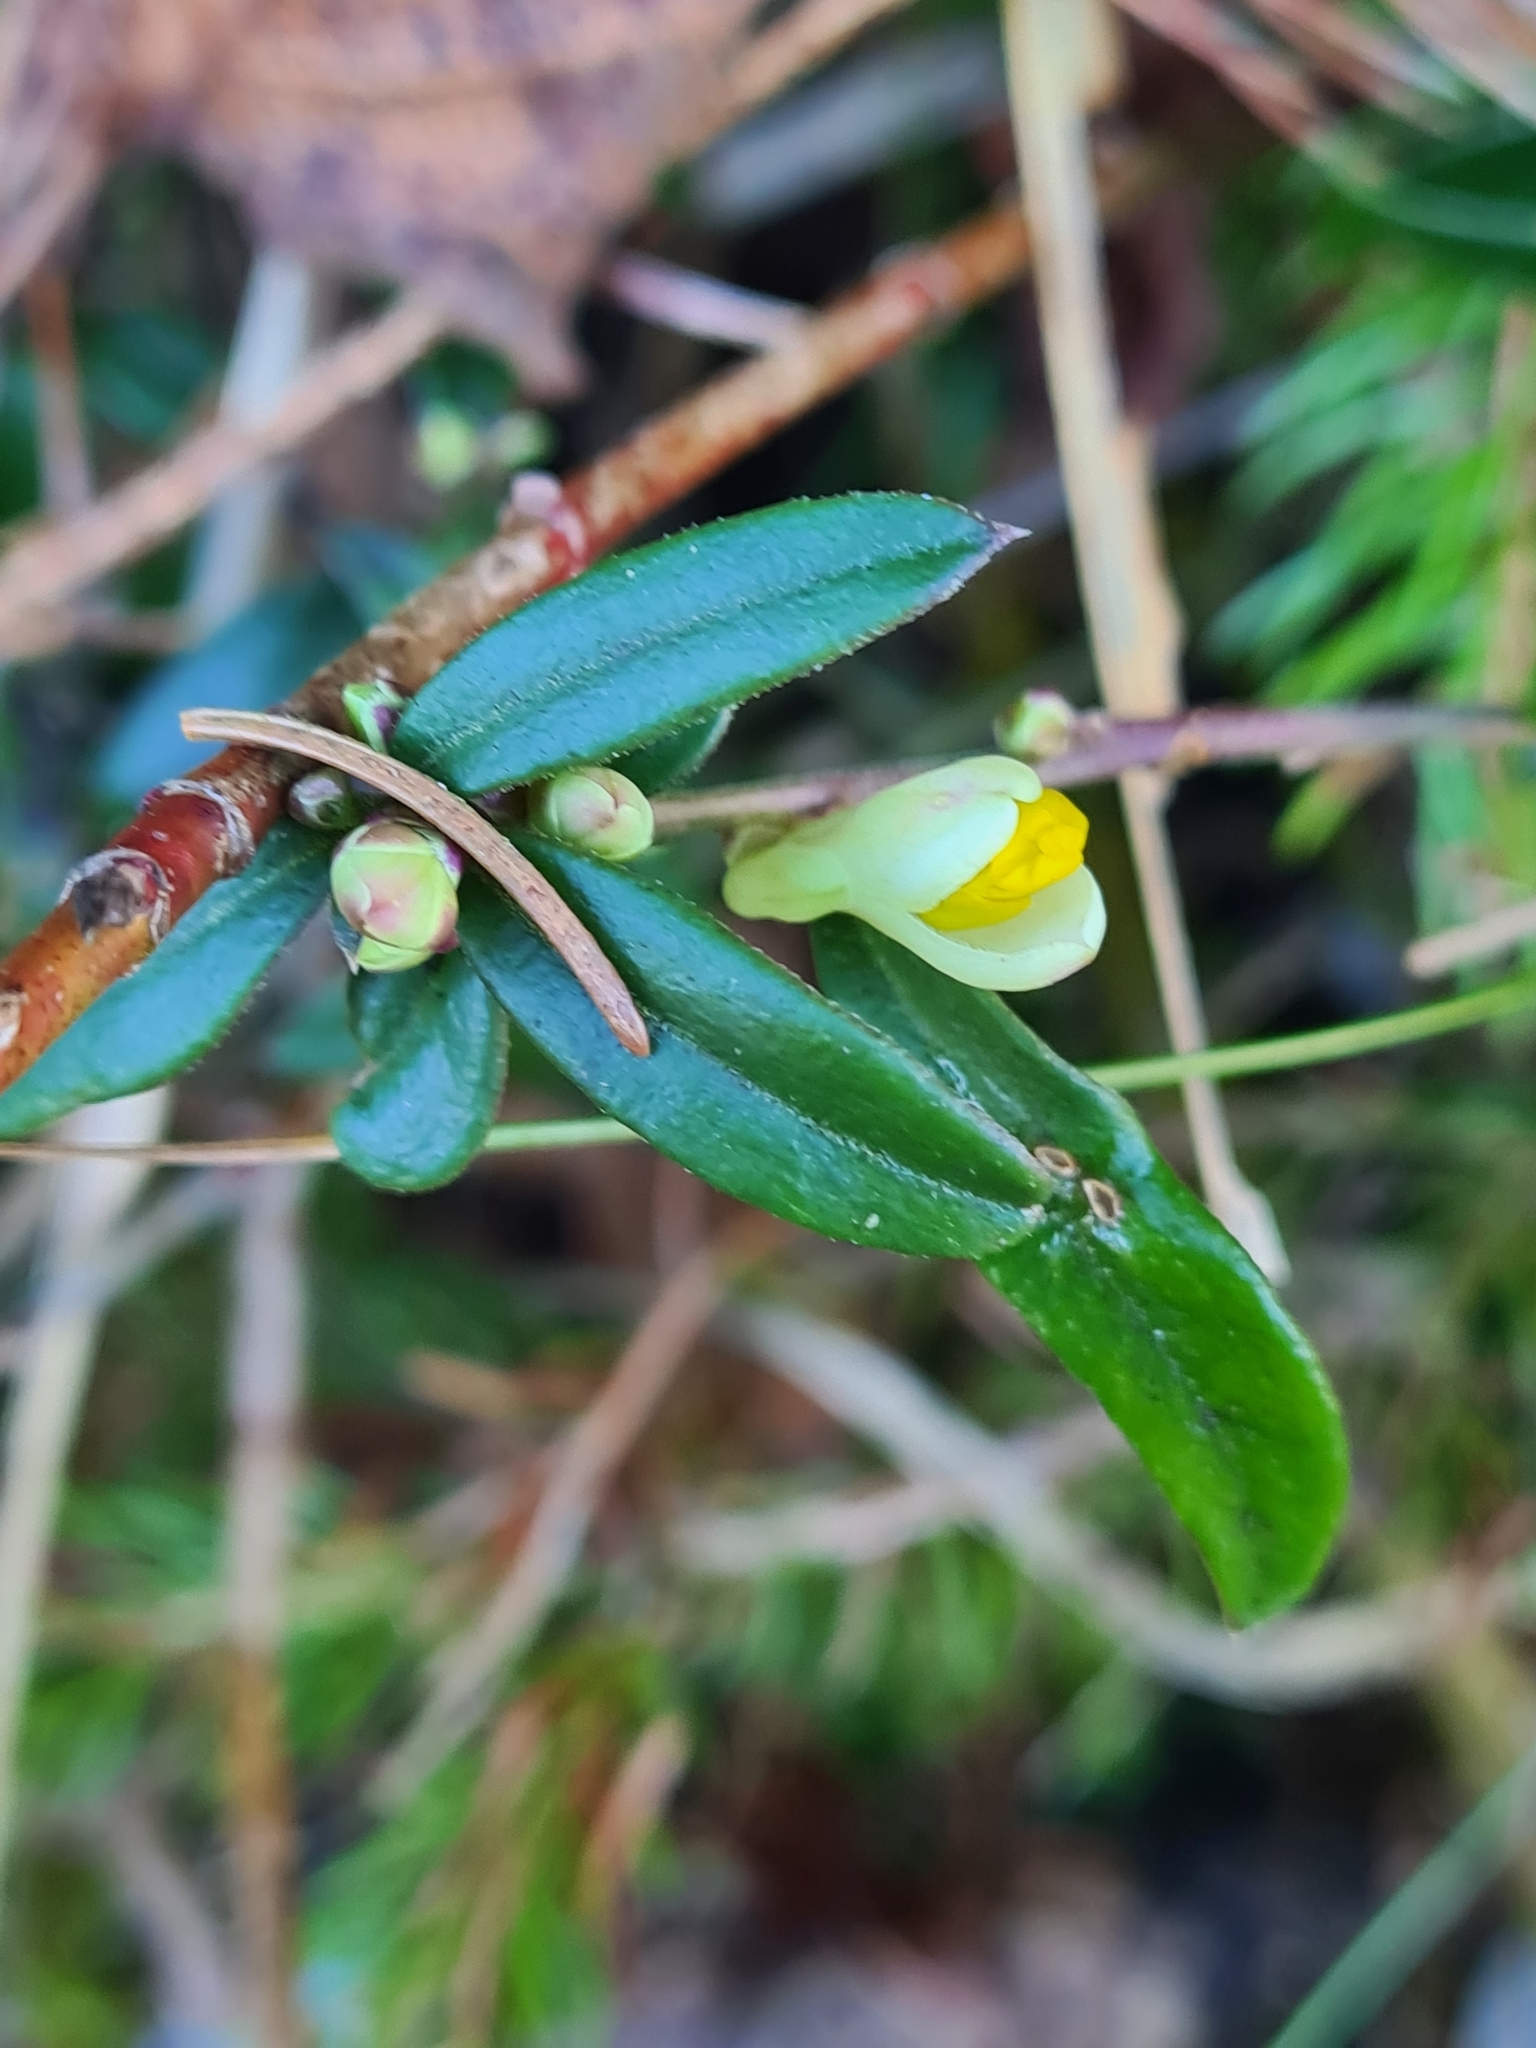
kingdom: Plantae
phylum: Tracheophyta
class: Magnoliopsida
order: Fabales
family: Polygalaceae
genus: Polygaloides
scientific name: Polygaloides chamaebuxus
